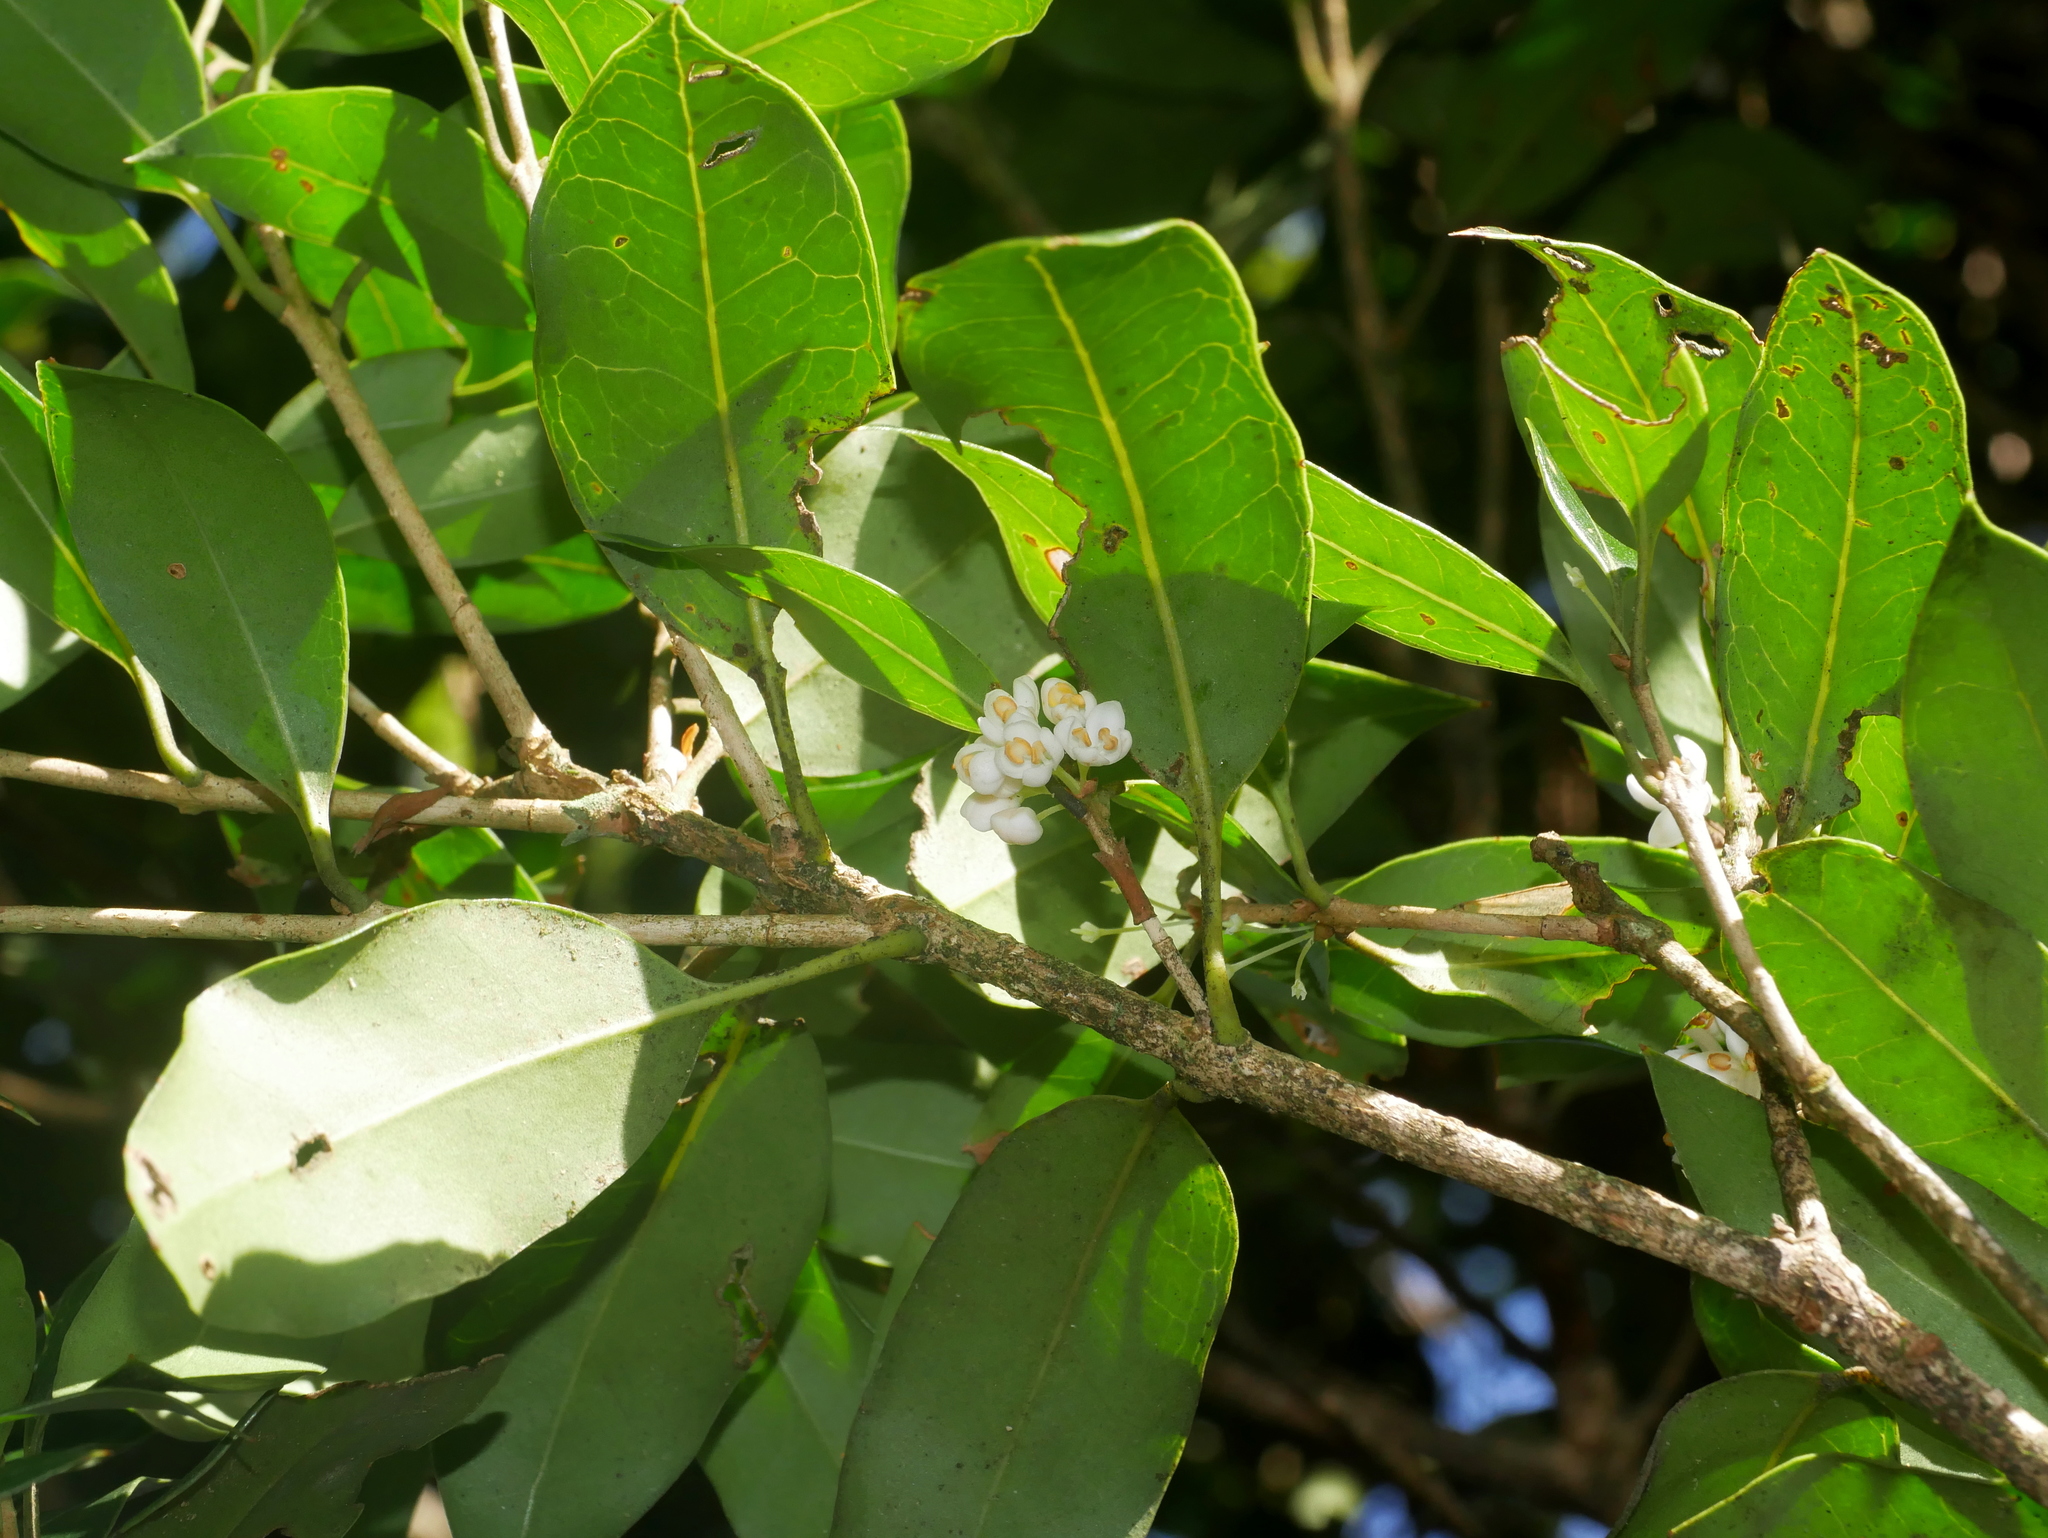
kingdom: Plantae
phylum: Tracheophyta
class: Magnoliopsida
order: Lamiales
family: Oleaceae
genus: Osmanthus
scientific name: Osmanthus heterophyllus
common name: Holly osmanthus
